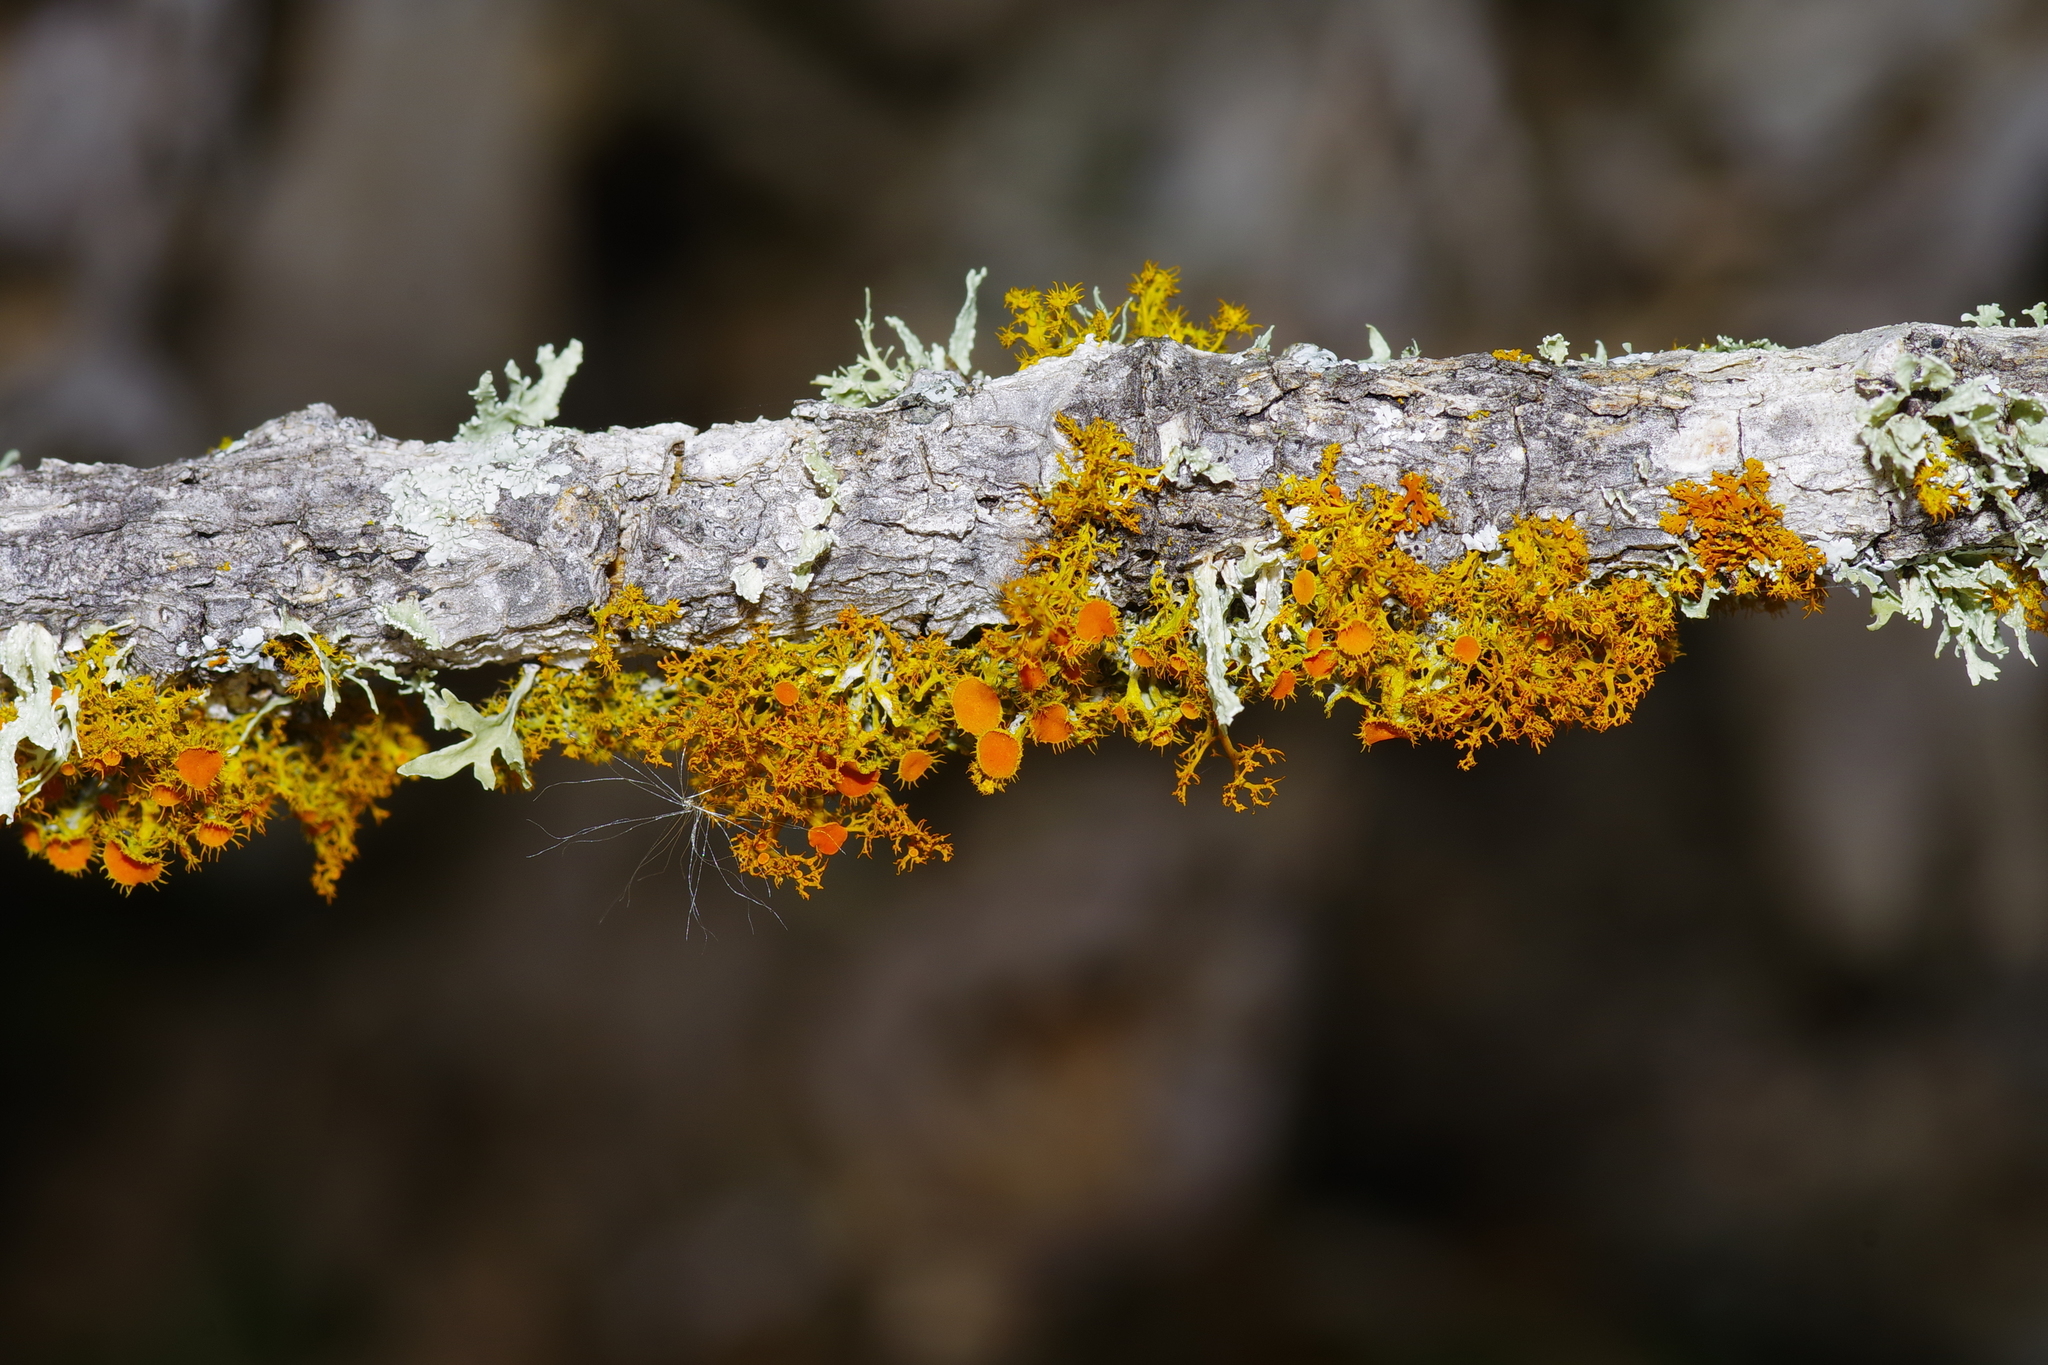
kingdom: Fungi
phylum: Ascomycota
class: Lecanoromycetes
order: Teloschistales
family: Teloschistaceae
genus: Niorma
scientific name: Niorma chrysophthalma
